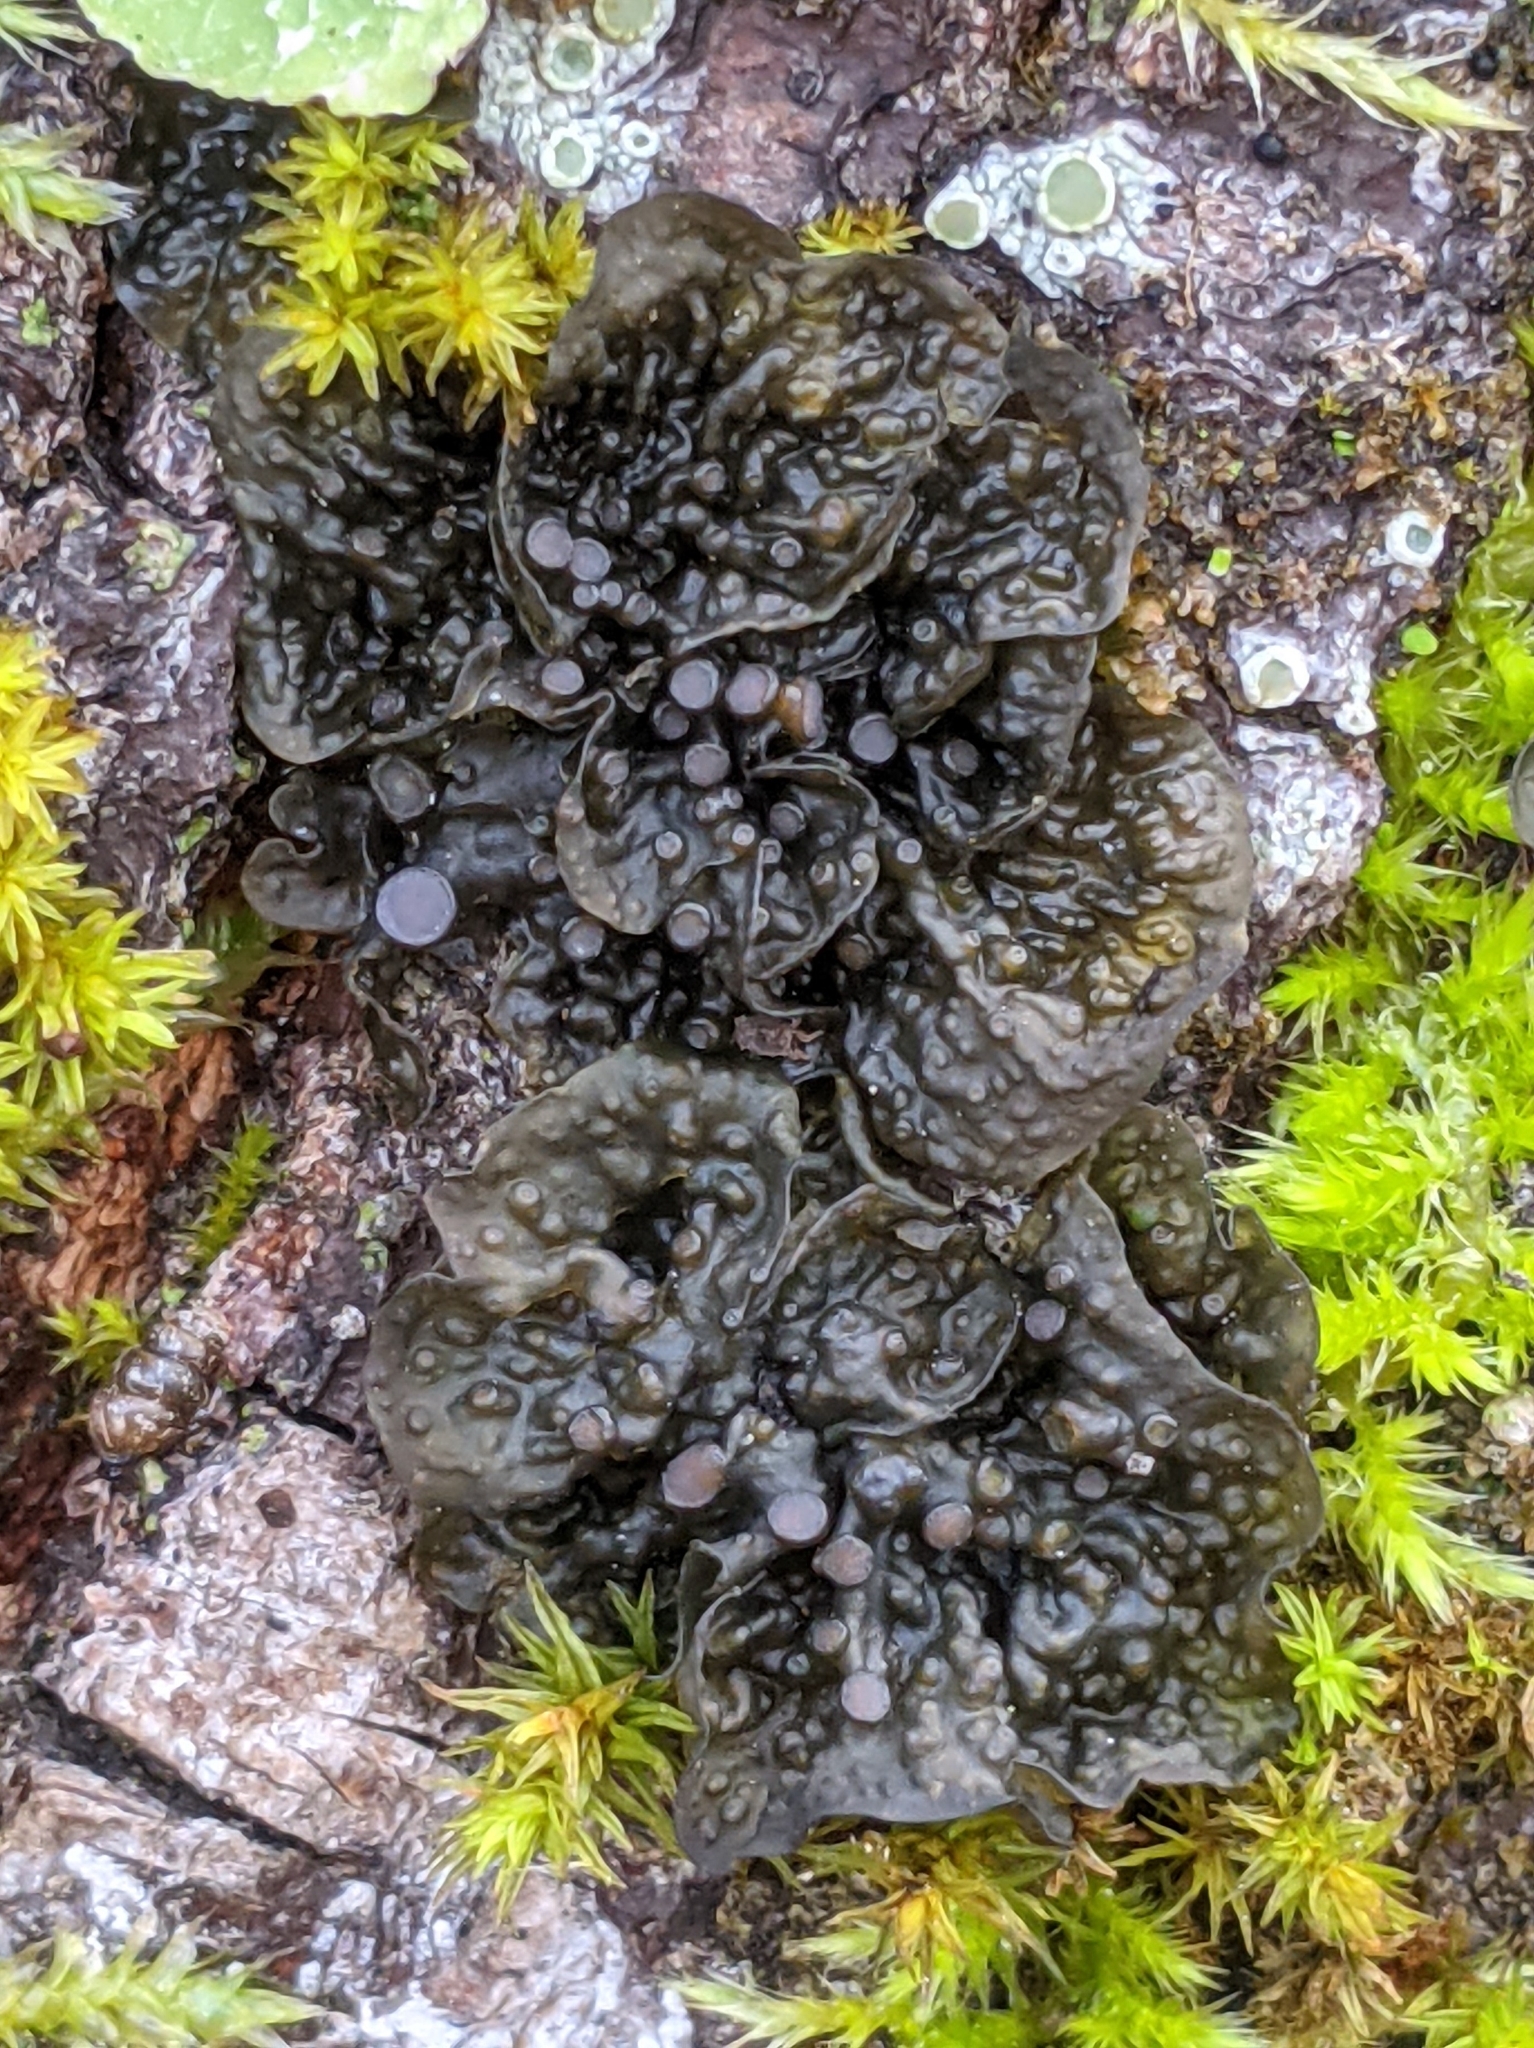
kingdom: Fungi
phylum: Ascomycota
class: Lecanoromycetes
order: Peltigerales
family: Collemataceae
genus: Collema
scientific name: Collema nigrescens
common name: Blistered jelly lichen
